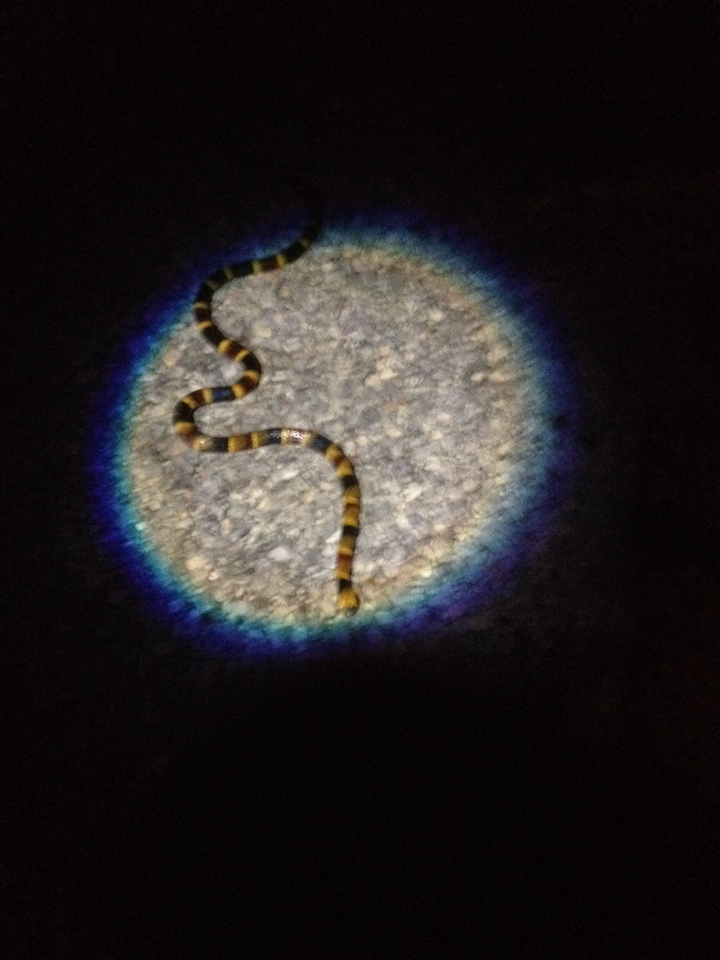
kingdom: Animalia
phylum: Chordata
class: Squamata
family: Elapidae
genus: Micrurus
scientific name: Micrurus tener
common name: Texas coral snake
